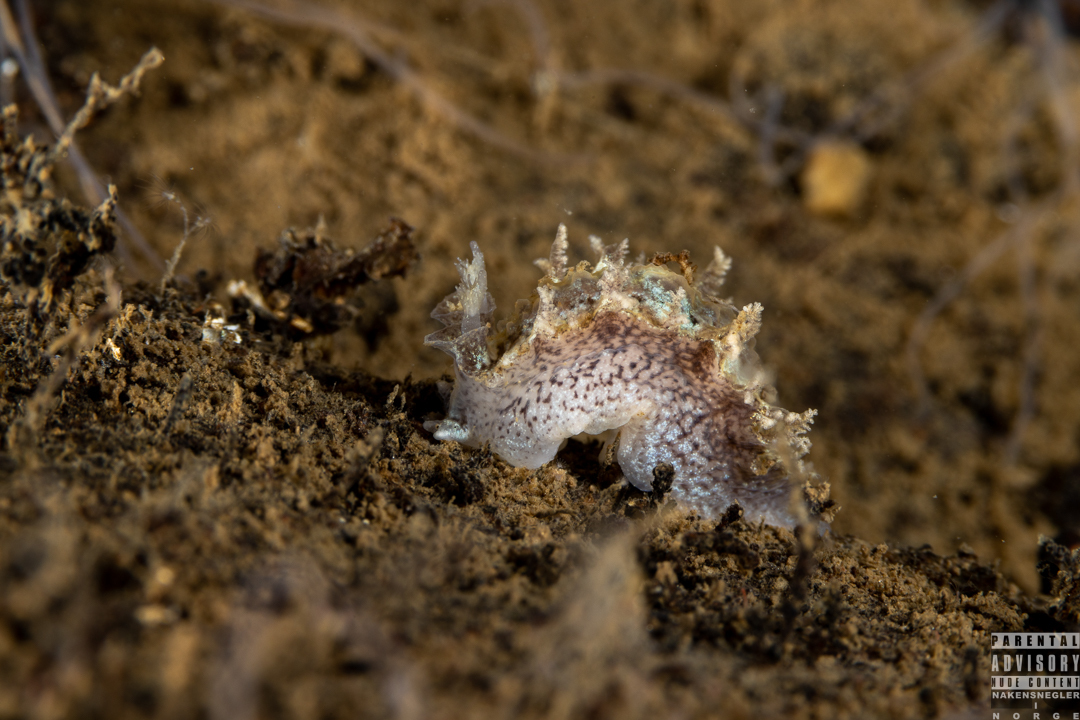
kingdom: Animalia
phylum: Mollusca
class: Gastropoda
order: Nudibranchia
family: Tritoniidae
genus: Duvaucelia
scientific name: Duvaucelia plebeia
